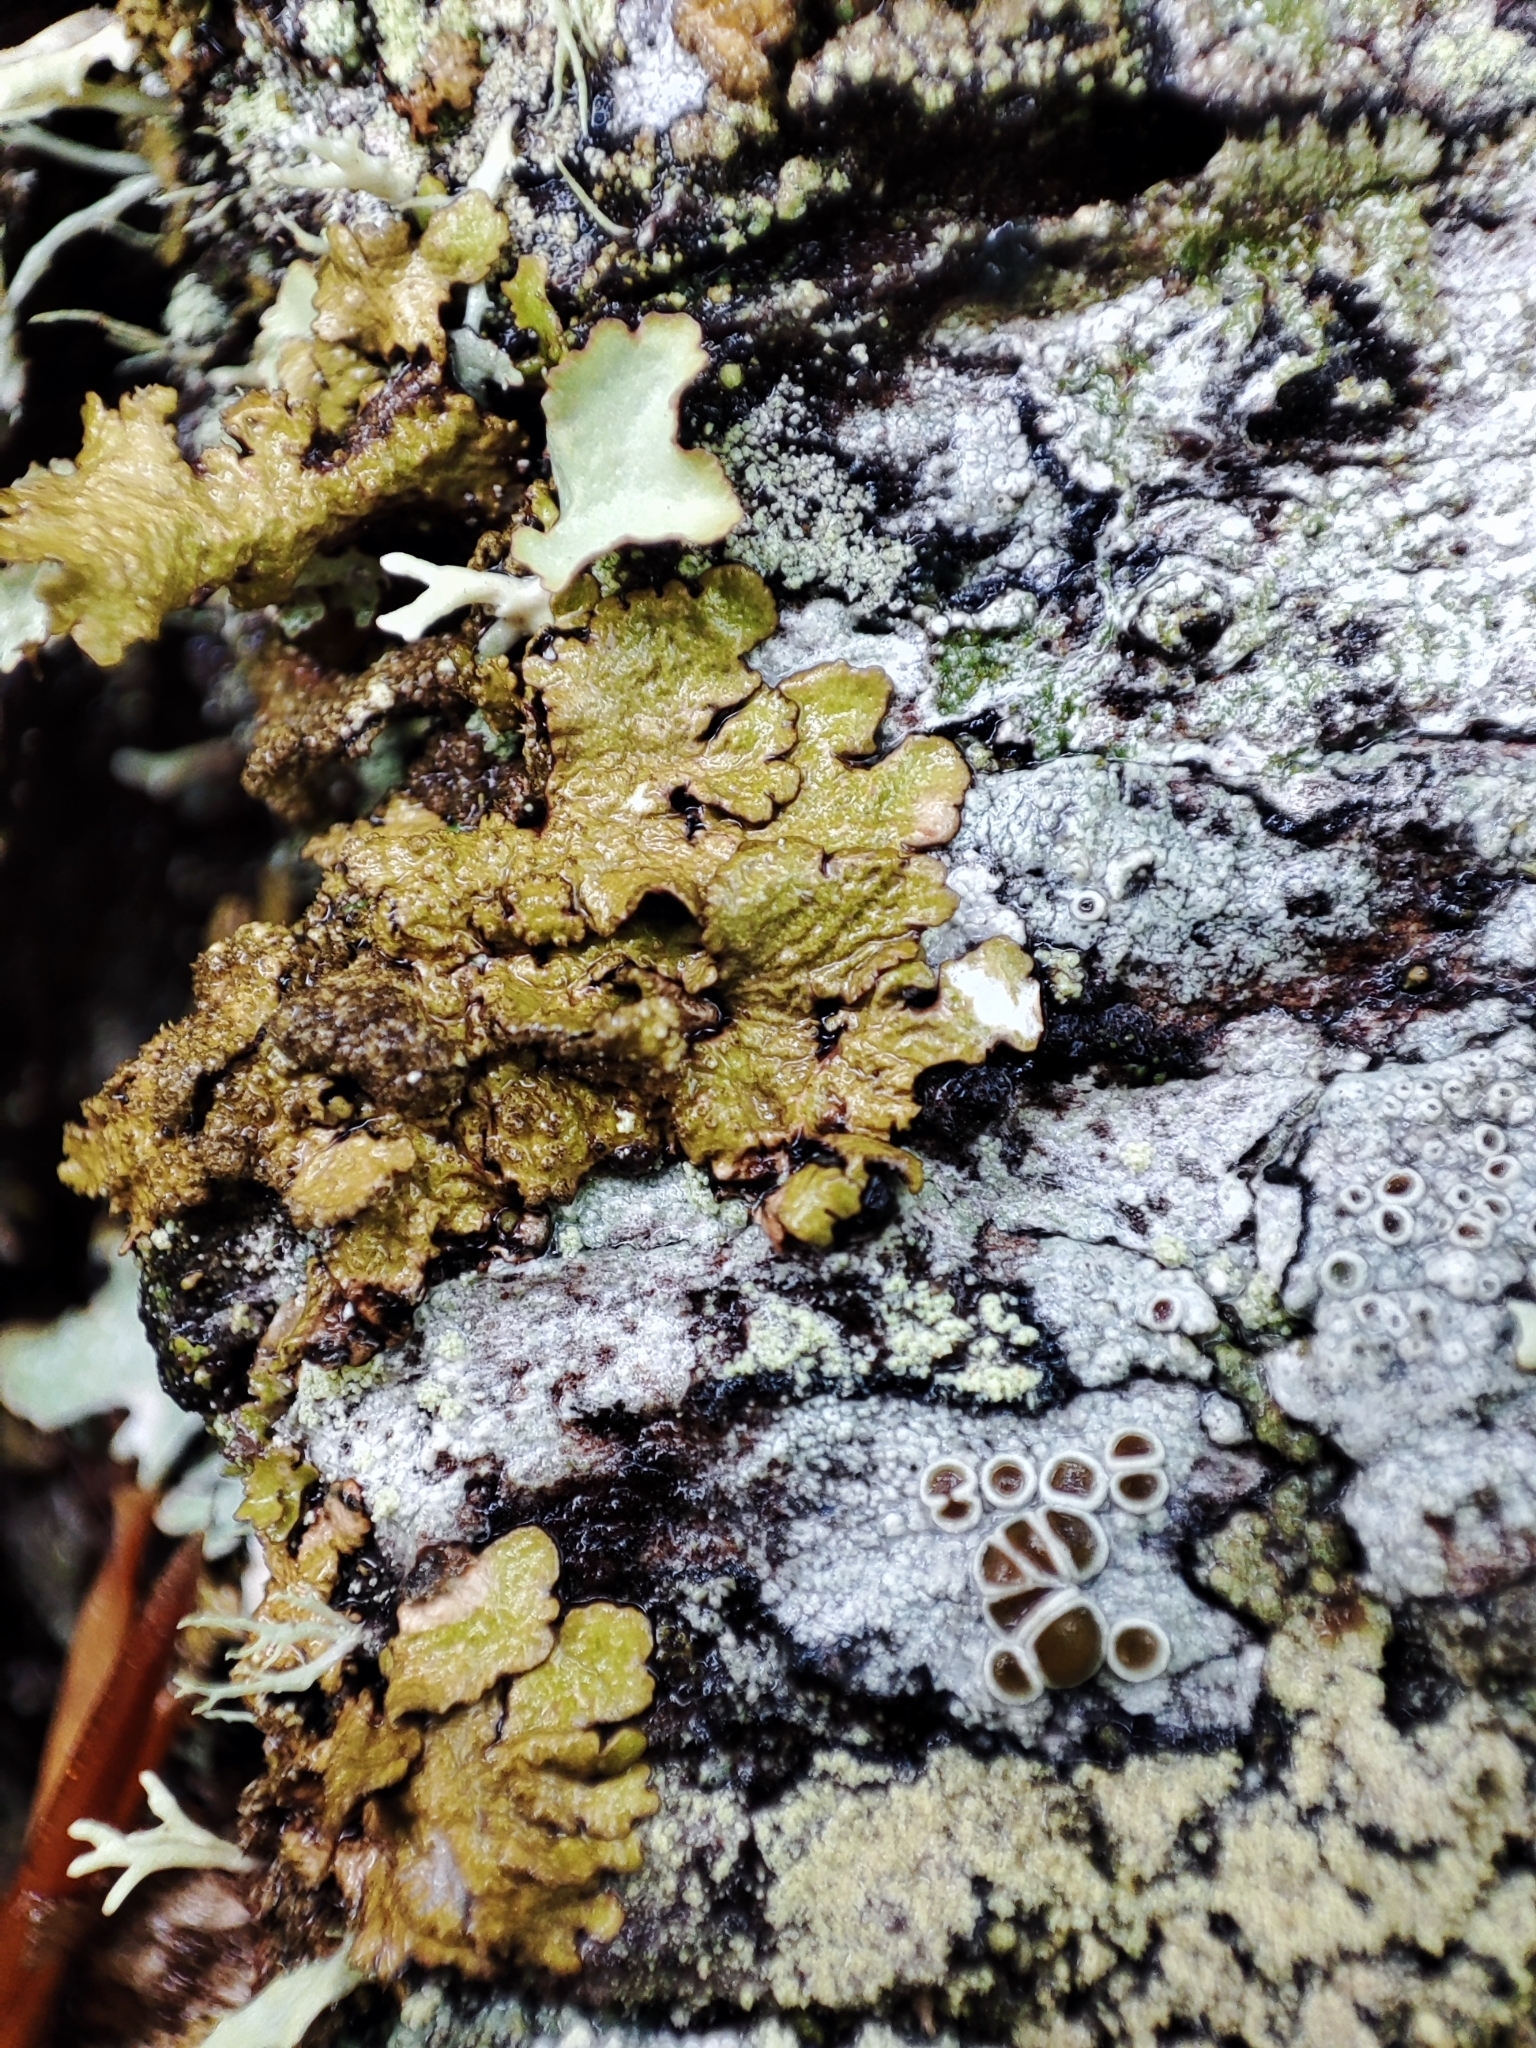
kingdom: Fungi
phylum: Ascomycota
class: Lecanoromycetes
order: Lecanorales
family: Parmeliaceae
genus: Melanelixia
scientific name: Melanelixia glabratula
